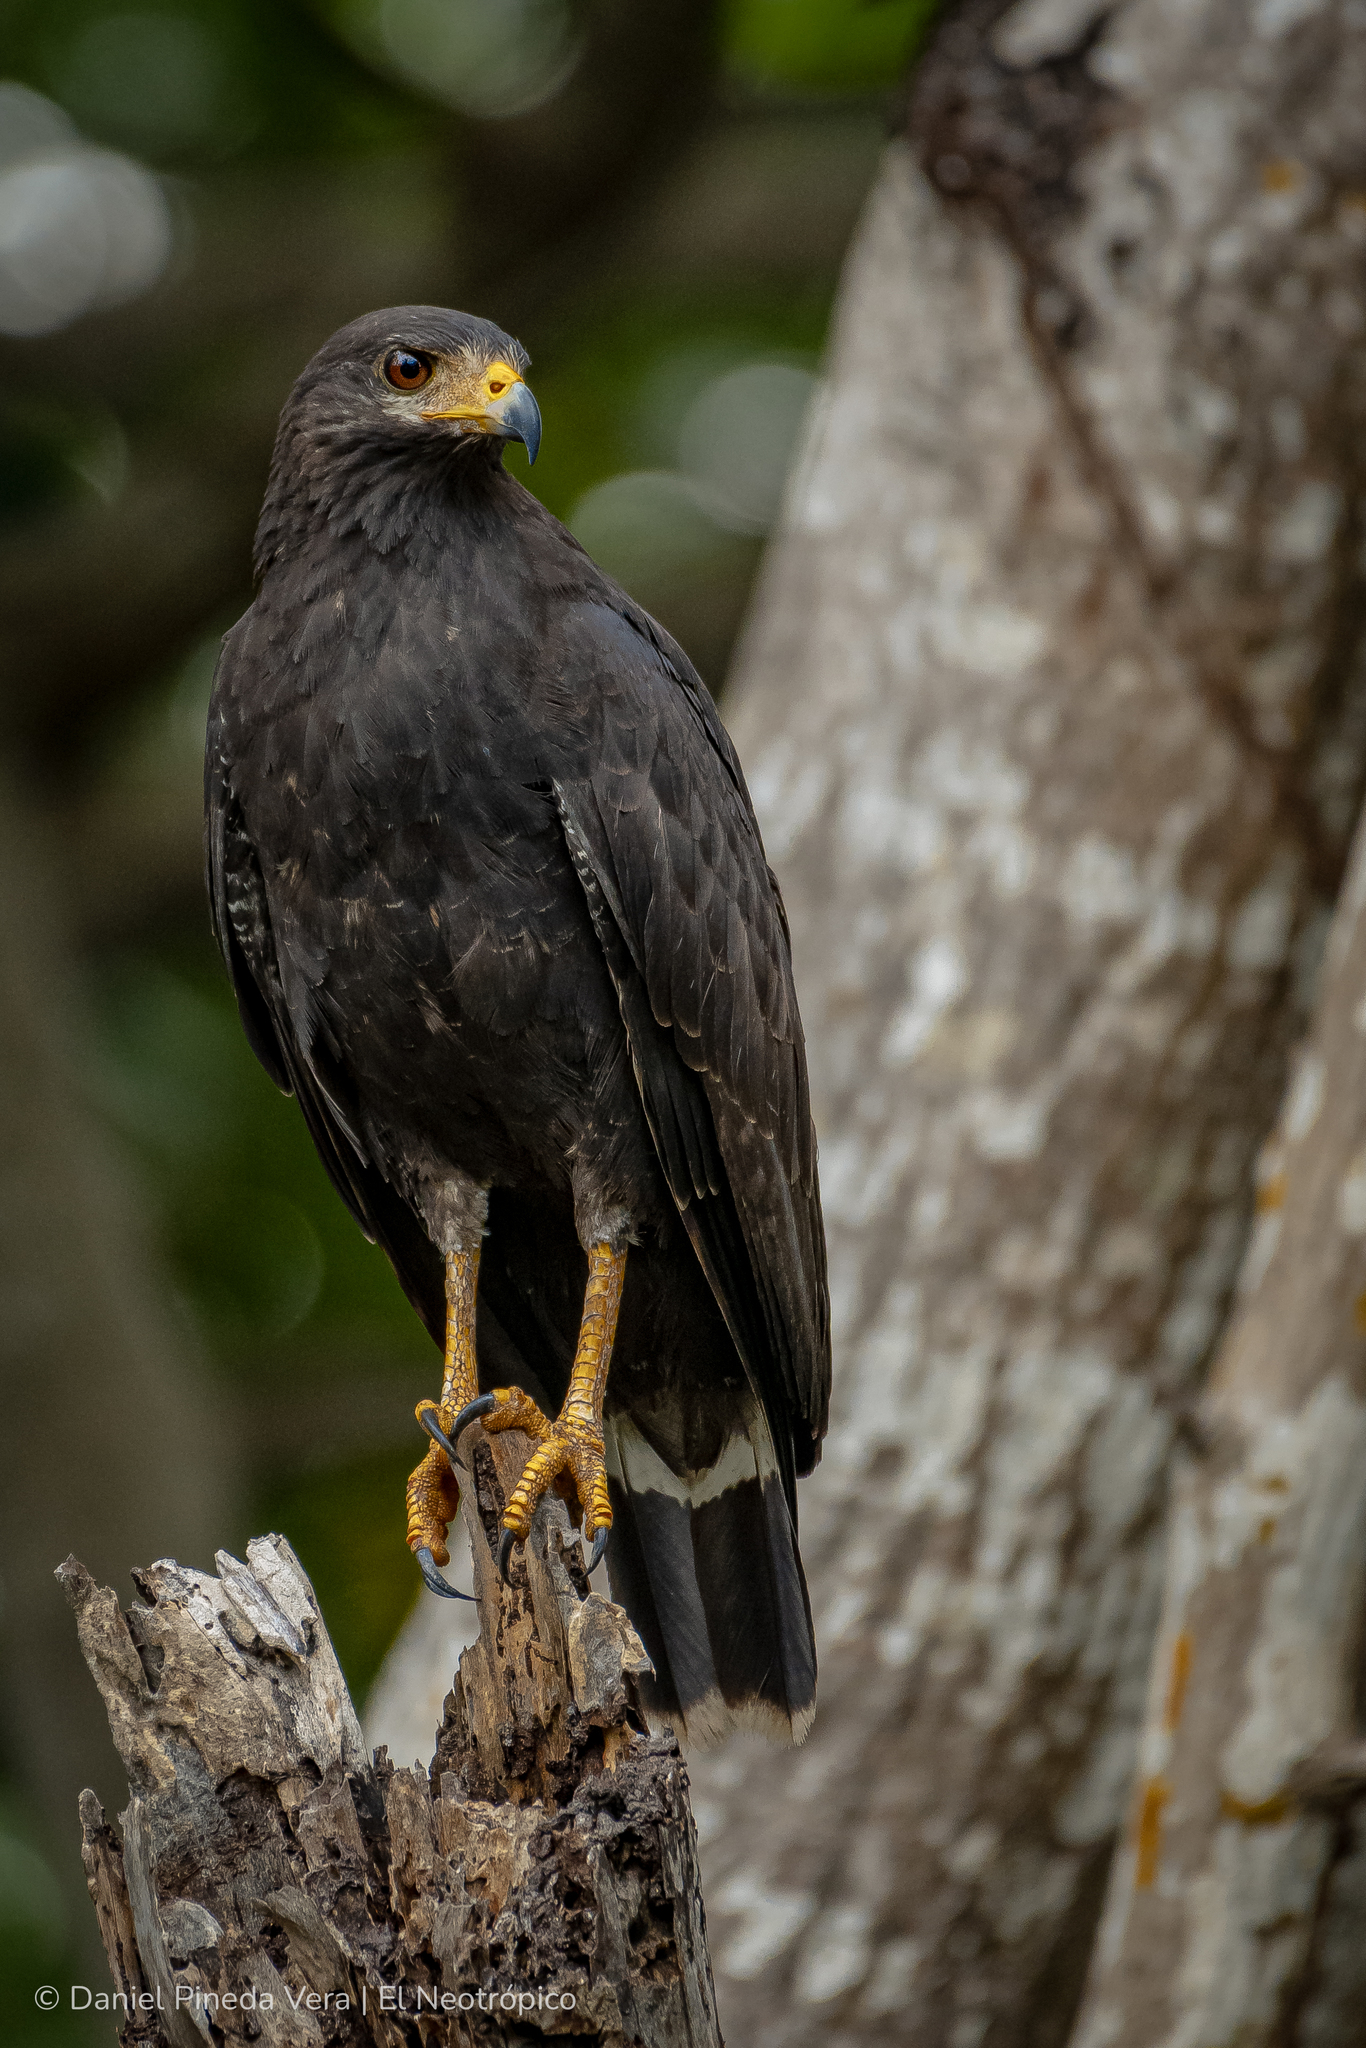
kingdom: Animalia
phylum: Chordata
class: Aves
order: Accipitriformes
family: Accipitridae
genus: Buteogallus
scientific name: Buteogallus anthracinus
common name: Common black hawk
